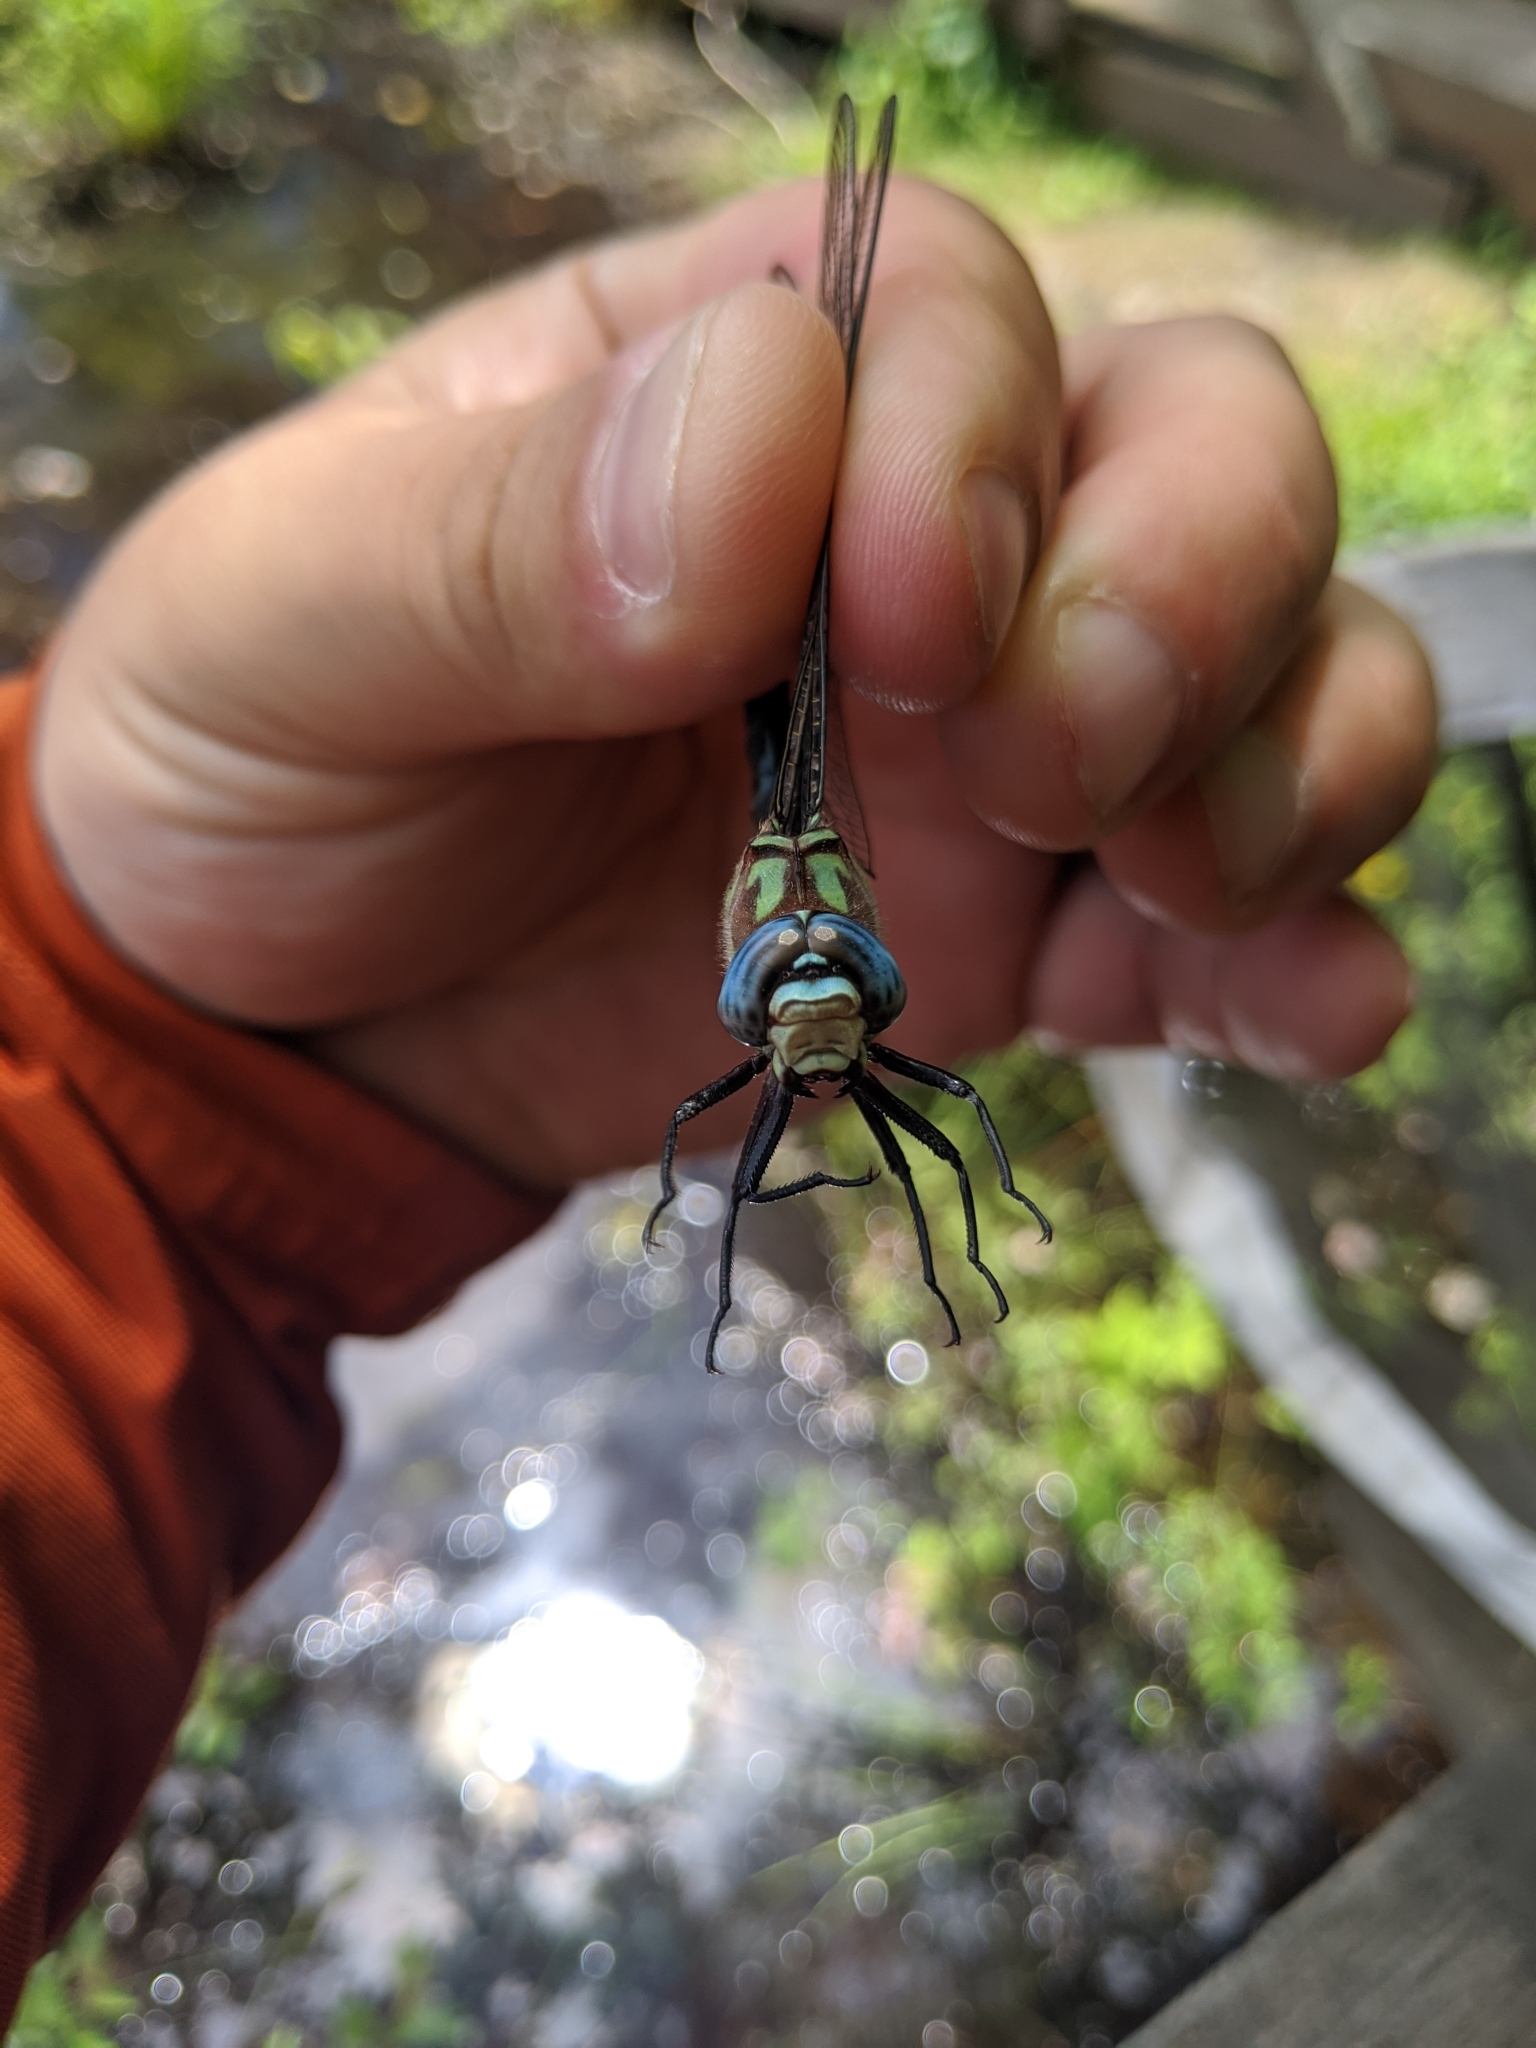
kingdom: Animalia
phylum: Arthropoda
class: Insecta
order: Odonata
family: Aeshnidae
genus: Nasiaeschna
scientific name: Nasiaeschna pentacantha
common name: Cyrano darner
